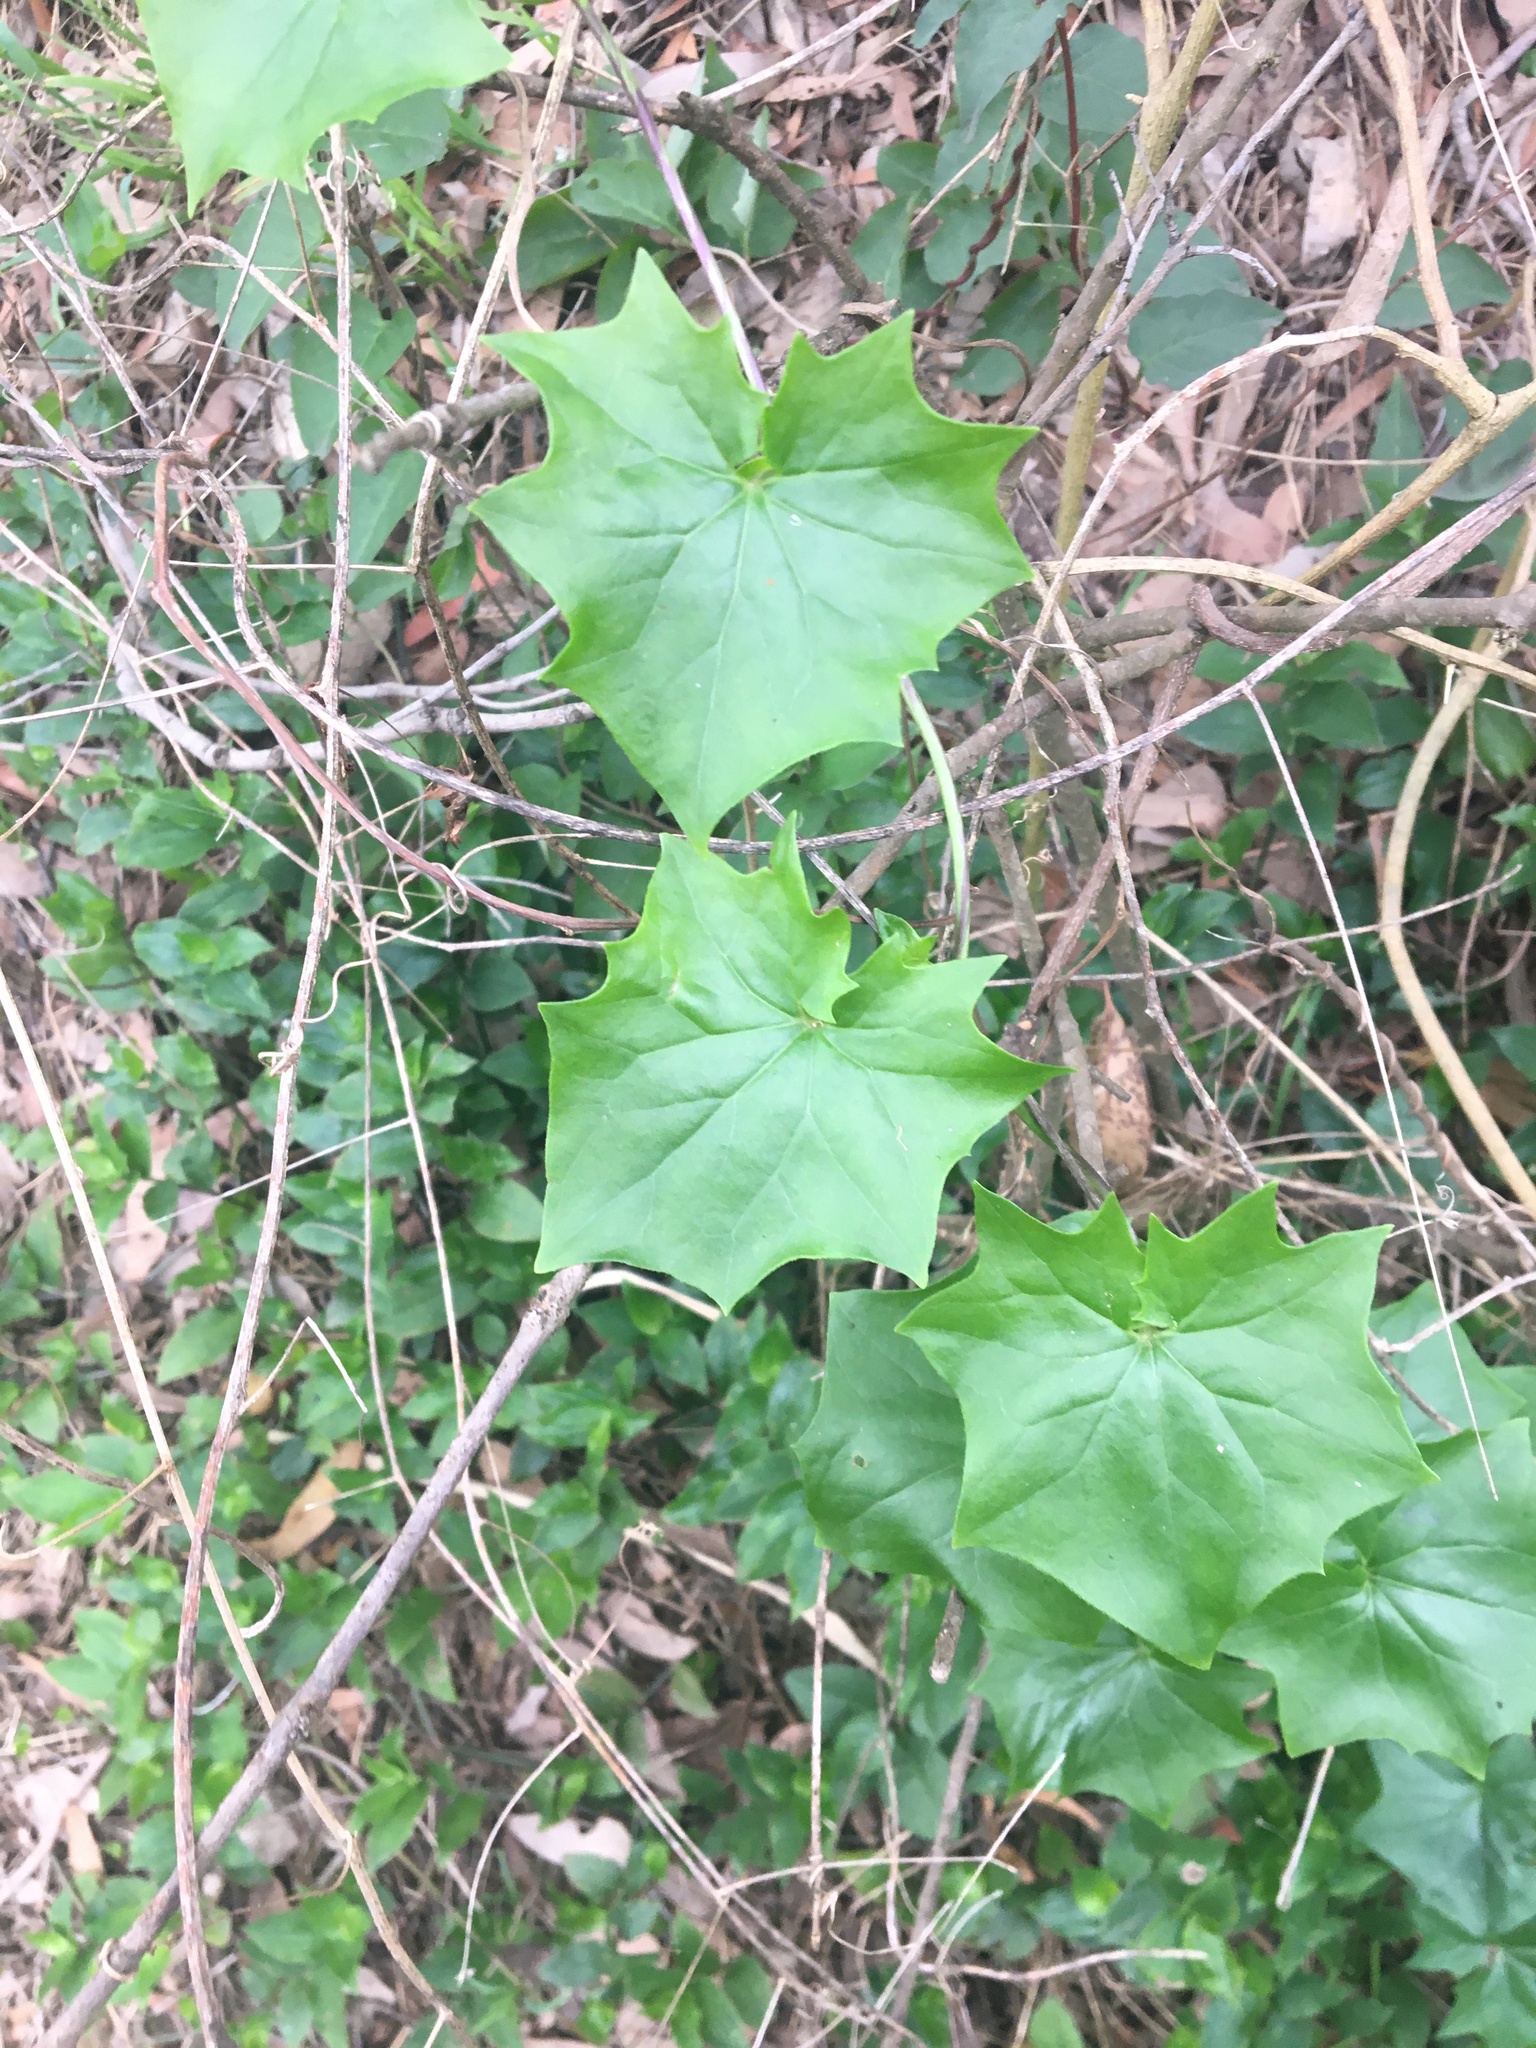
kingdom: Plantae
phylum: Tracheophyta
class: Magnoliopsida
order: Asterales
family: Asteraceae
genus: Delairea
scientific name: Delairea odorata
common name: Cape-ivy
